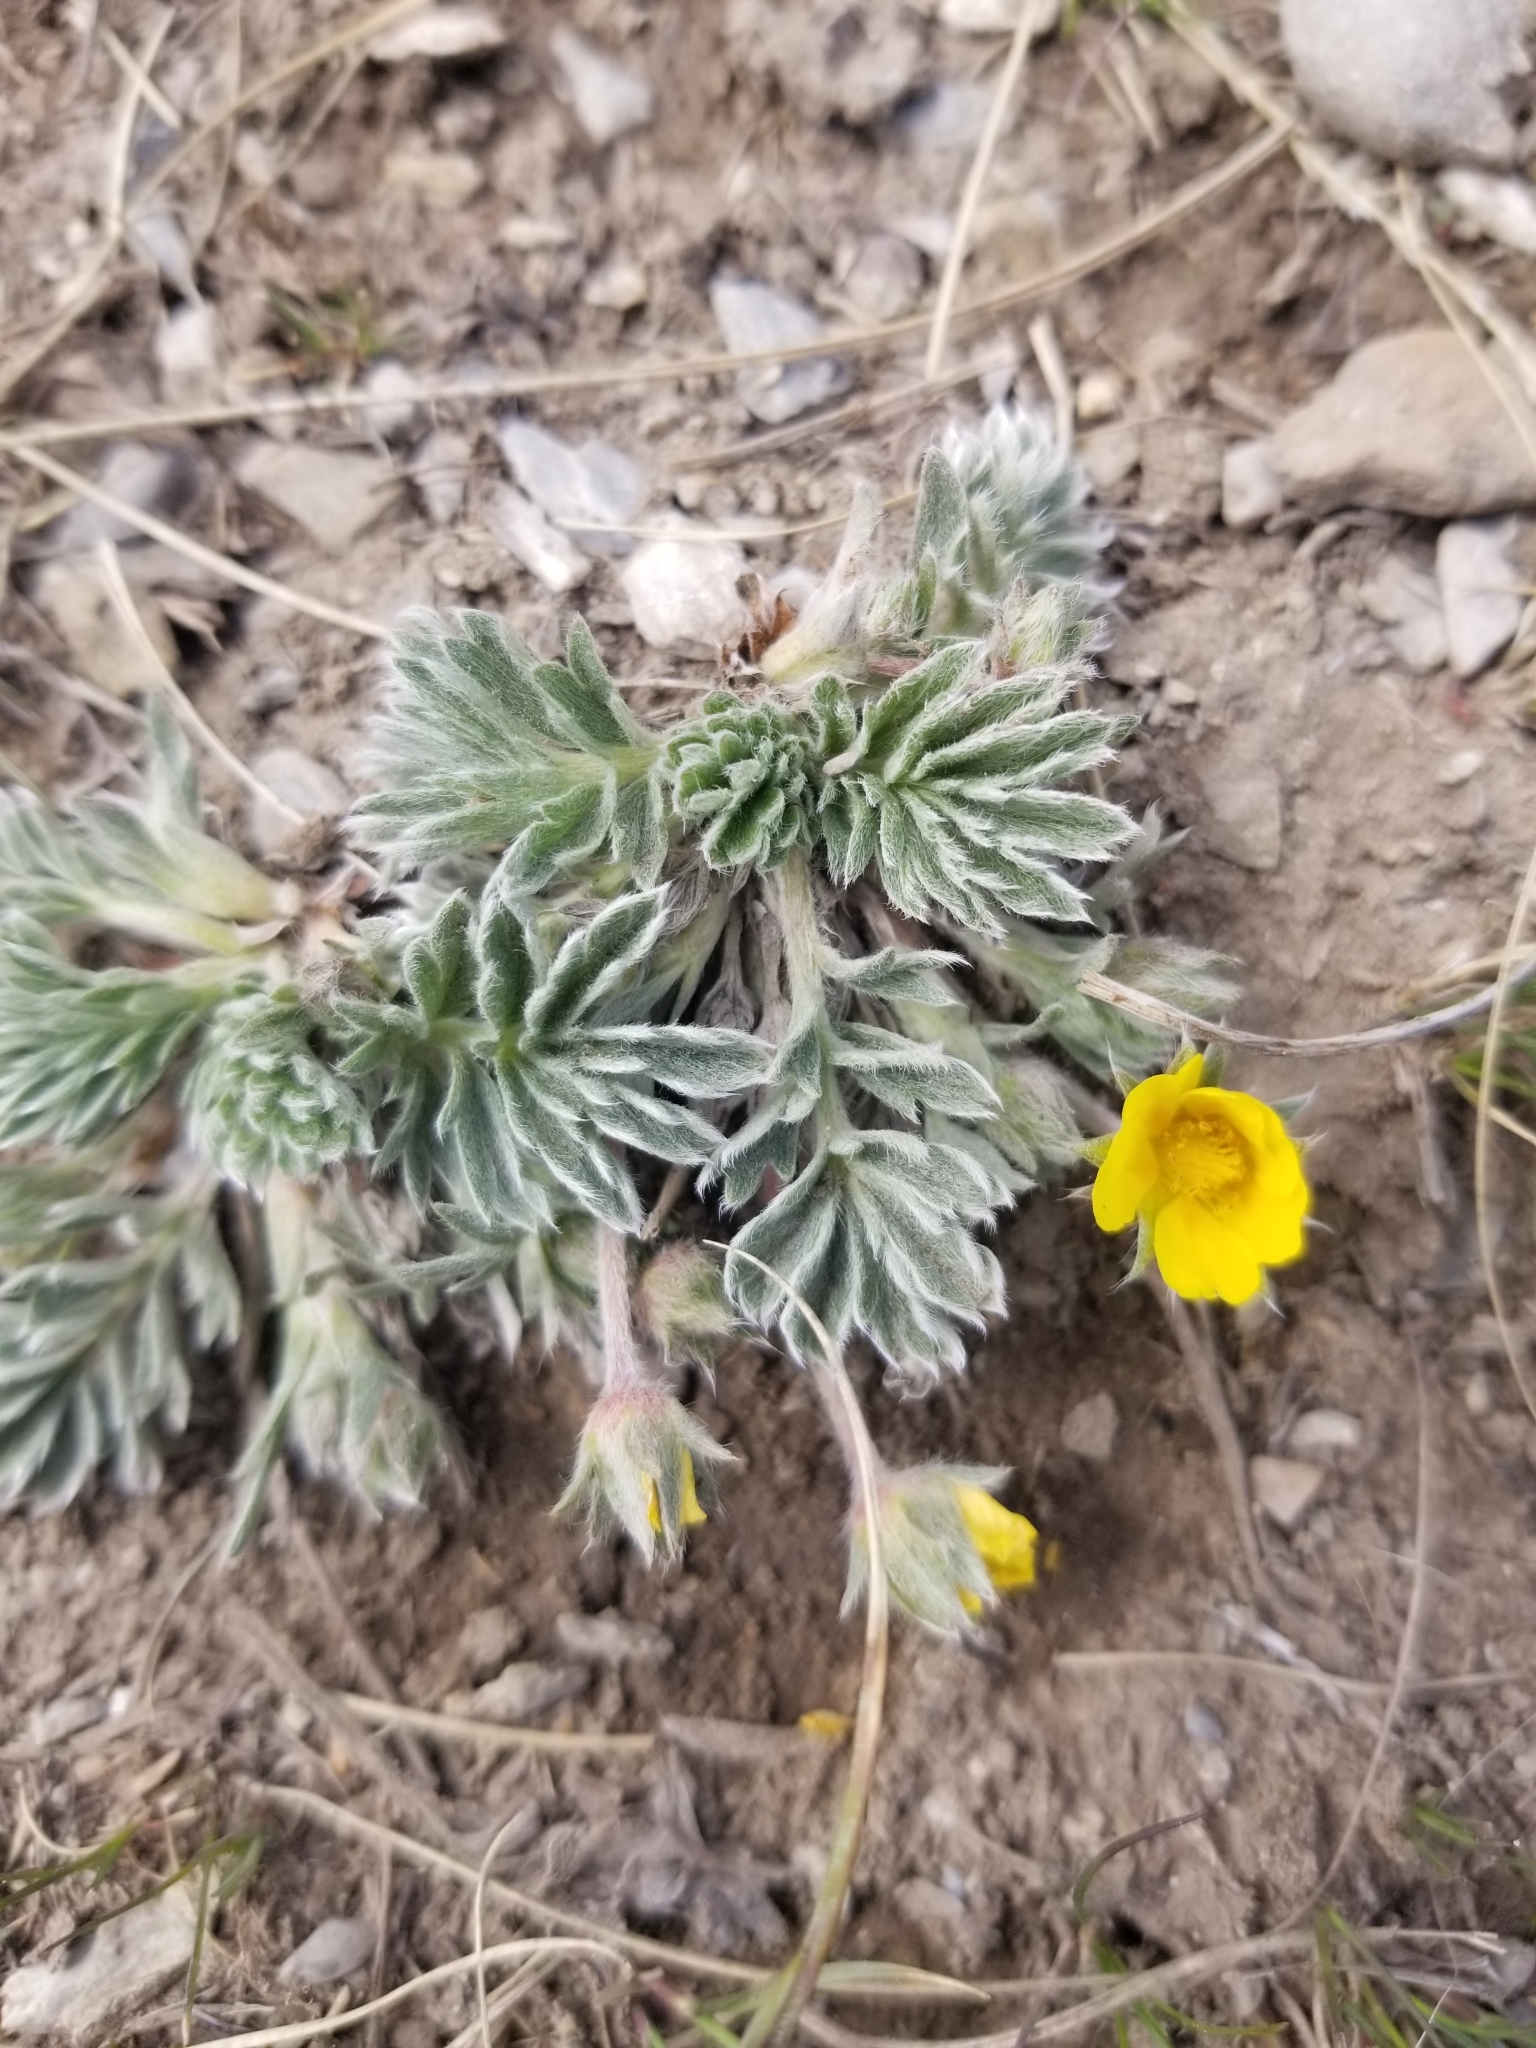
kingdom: Plantae
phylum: Tracheophyta
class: Magnoliopsida
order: Rosales
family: Rosaceae
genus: Potentilla
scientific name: Potentilla ovina
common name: Sheep cinquefoil
